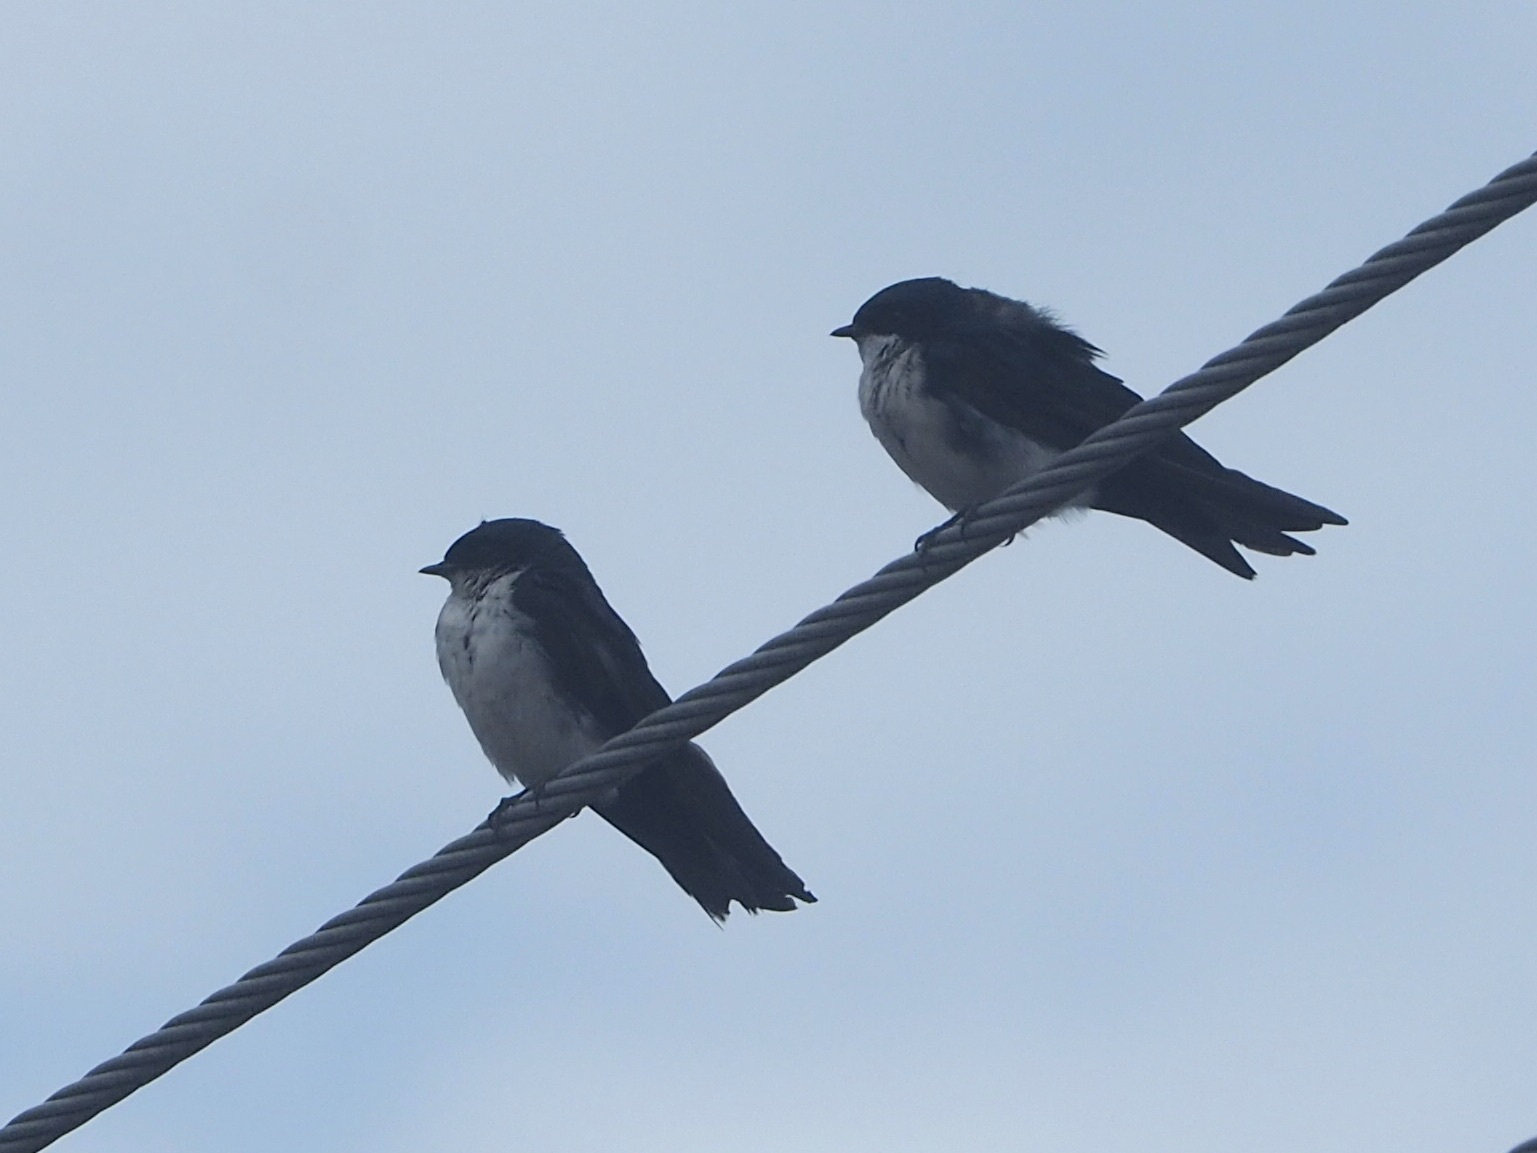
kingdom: Animalia
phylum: Chordata
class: Aves
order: Passeriformes
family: Hirundinidae
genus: Notiochelidon
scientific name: Notiochelidon cyanoleuca
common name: Blue-and-white swallow
